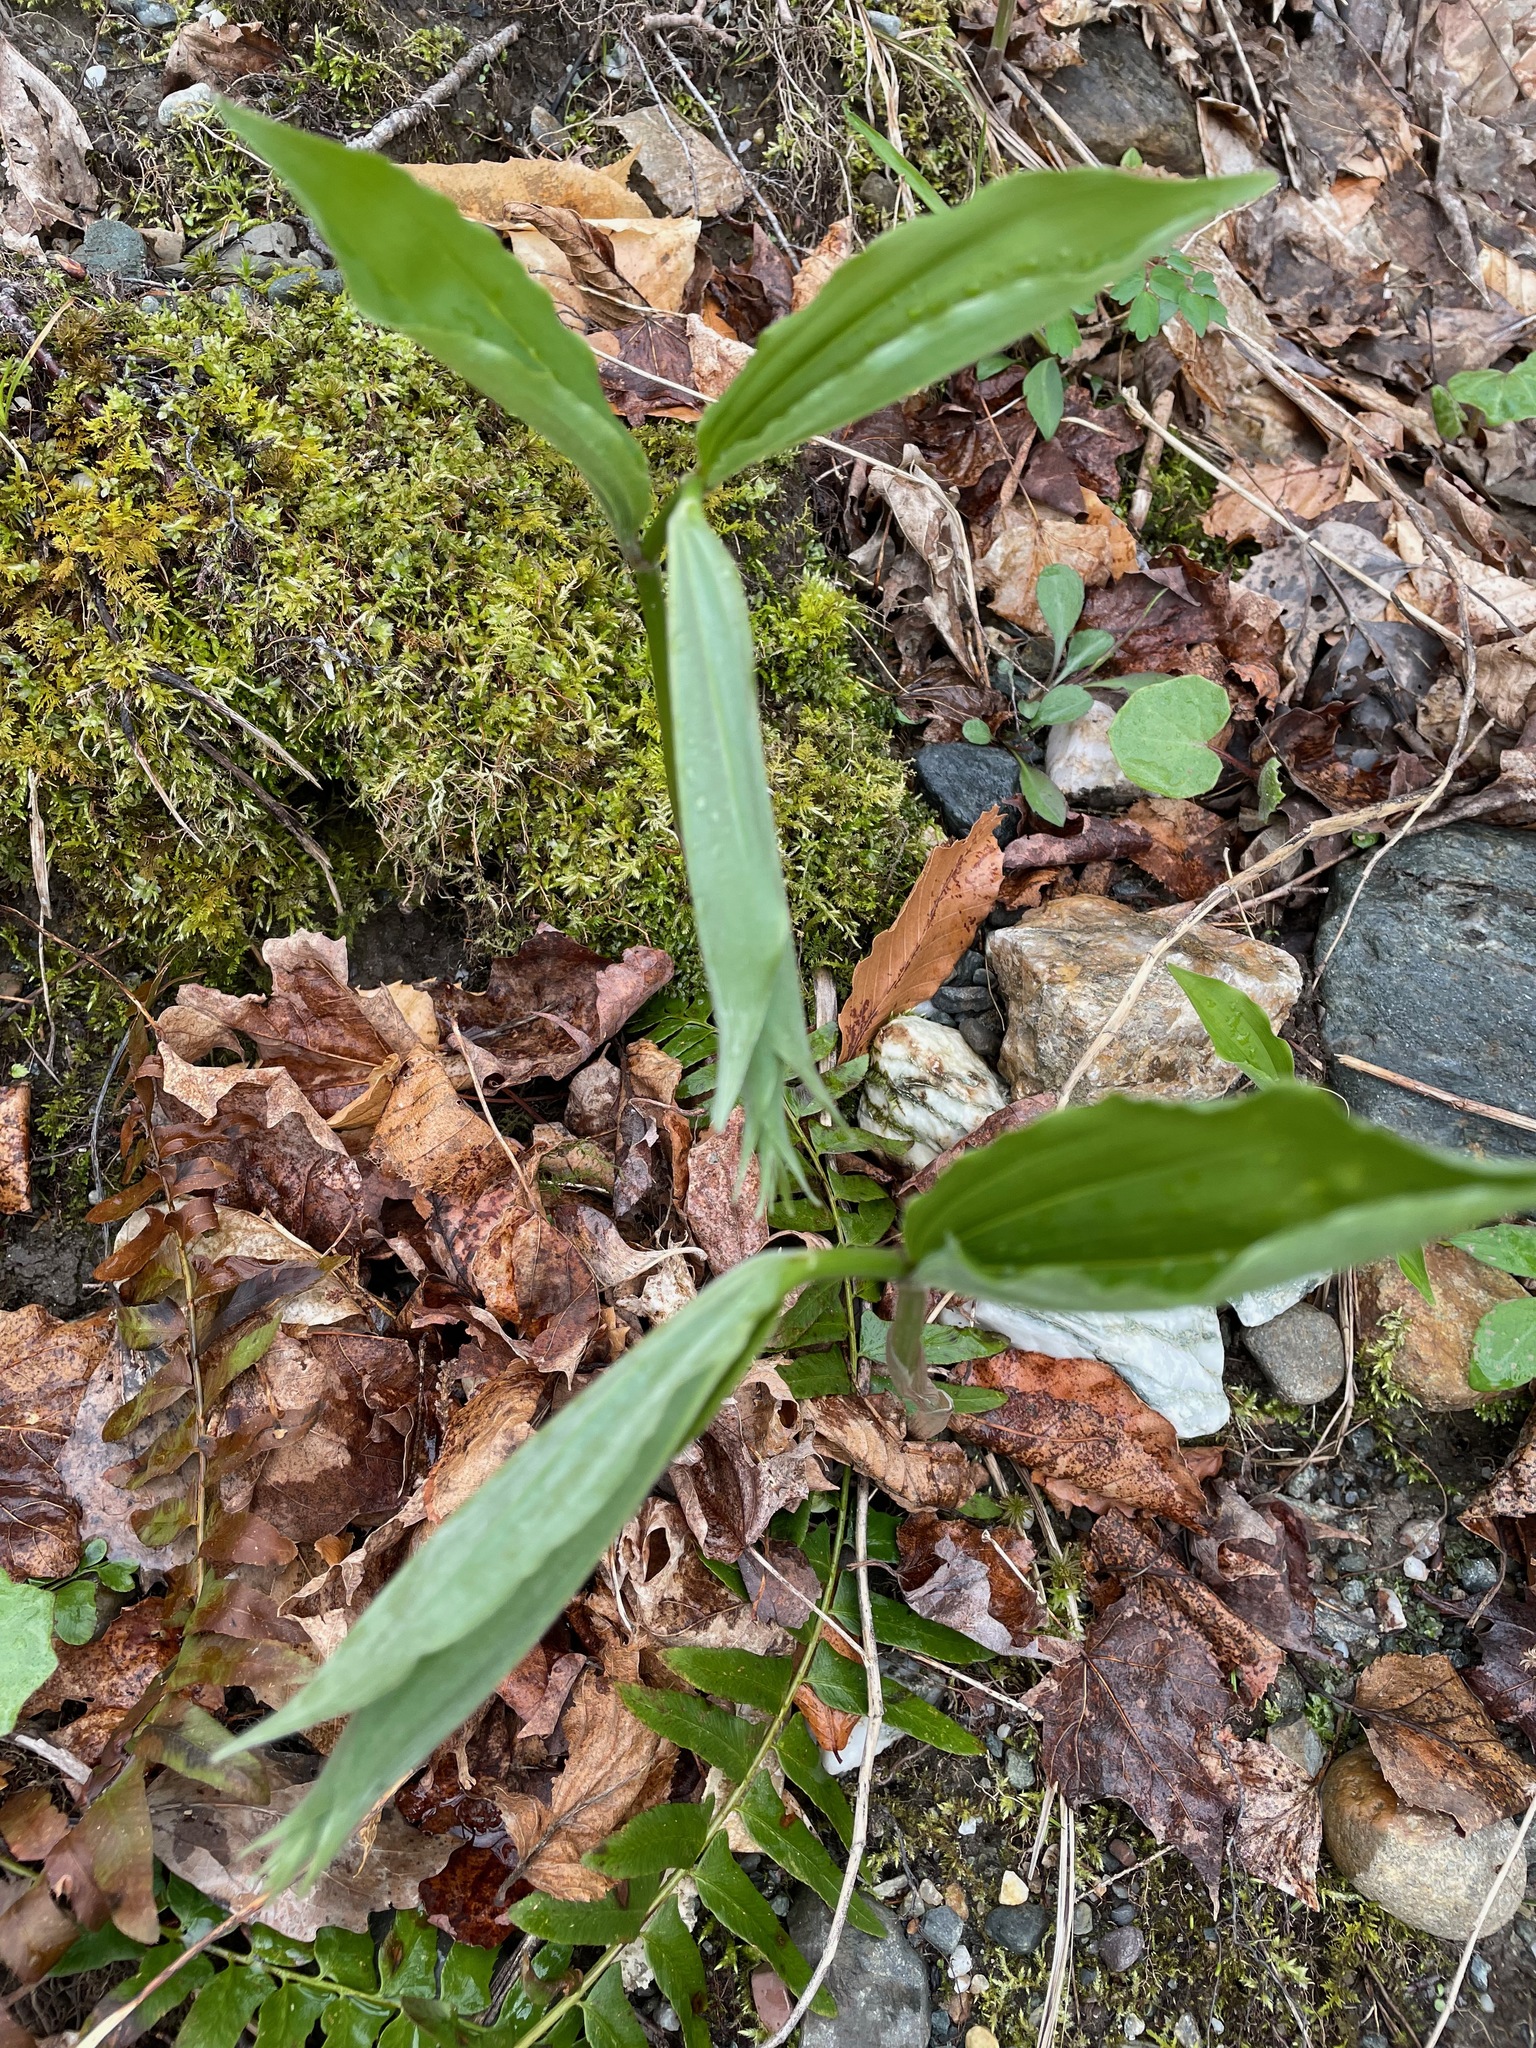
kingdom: Plantae
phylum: Tracheophyta
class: Liliopsida
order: Asparagales
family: Asparagaceae
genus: Maianthemum
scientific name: Maianthemum racemosum
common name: False spikenard
